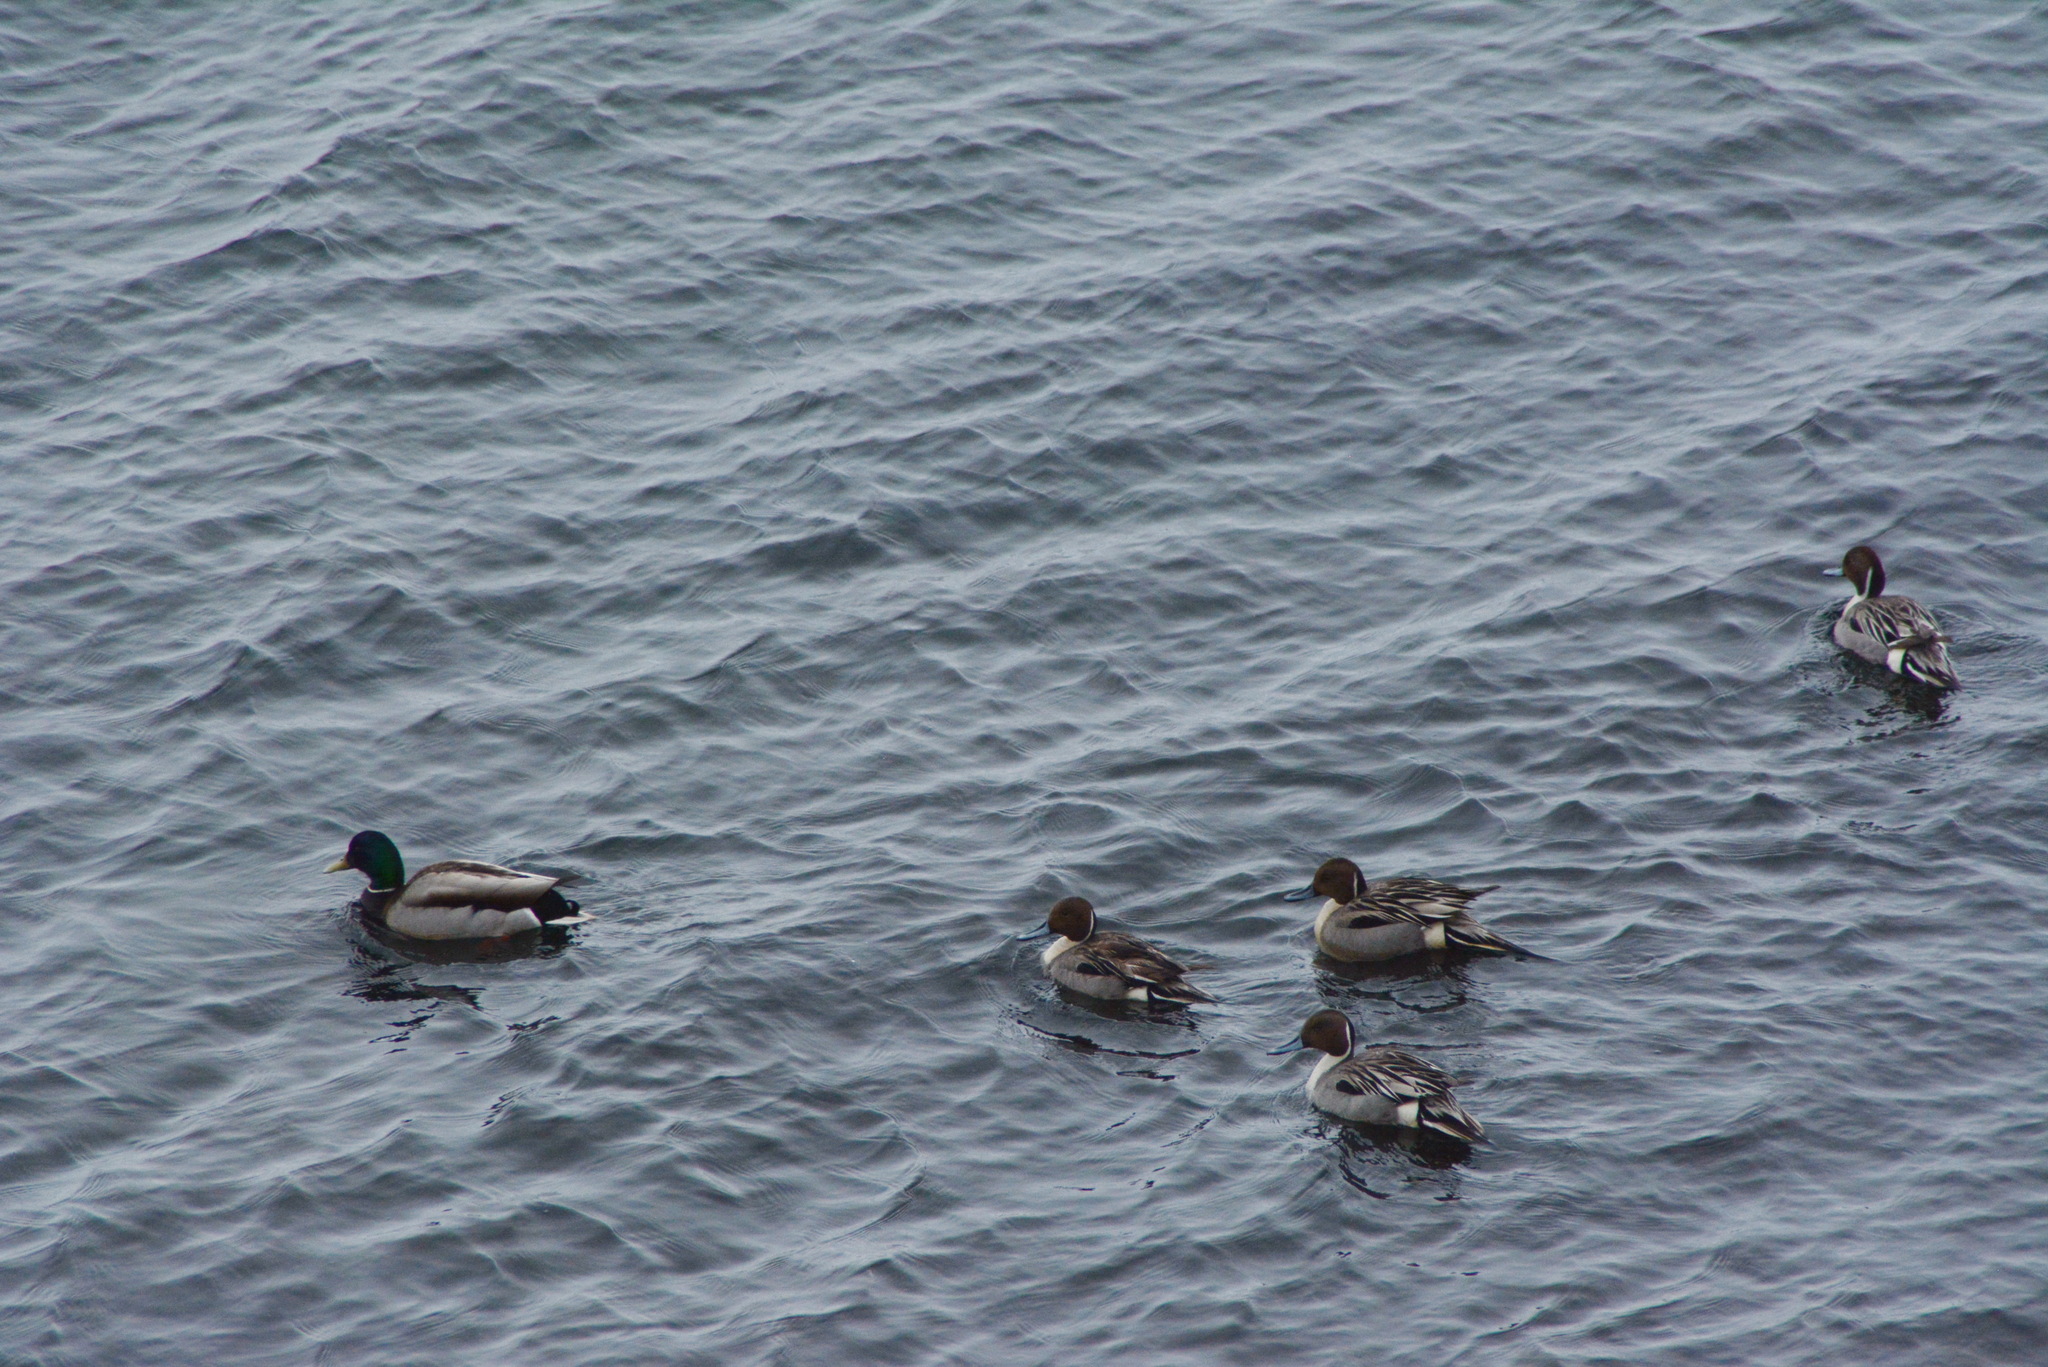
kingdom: Animalia
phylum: Chordata
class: Aves
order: Anseriformes
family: Anatidae
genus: Anas
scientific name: Anas acuta
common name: Northern pintail
